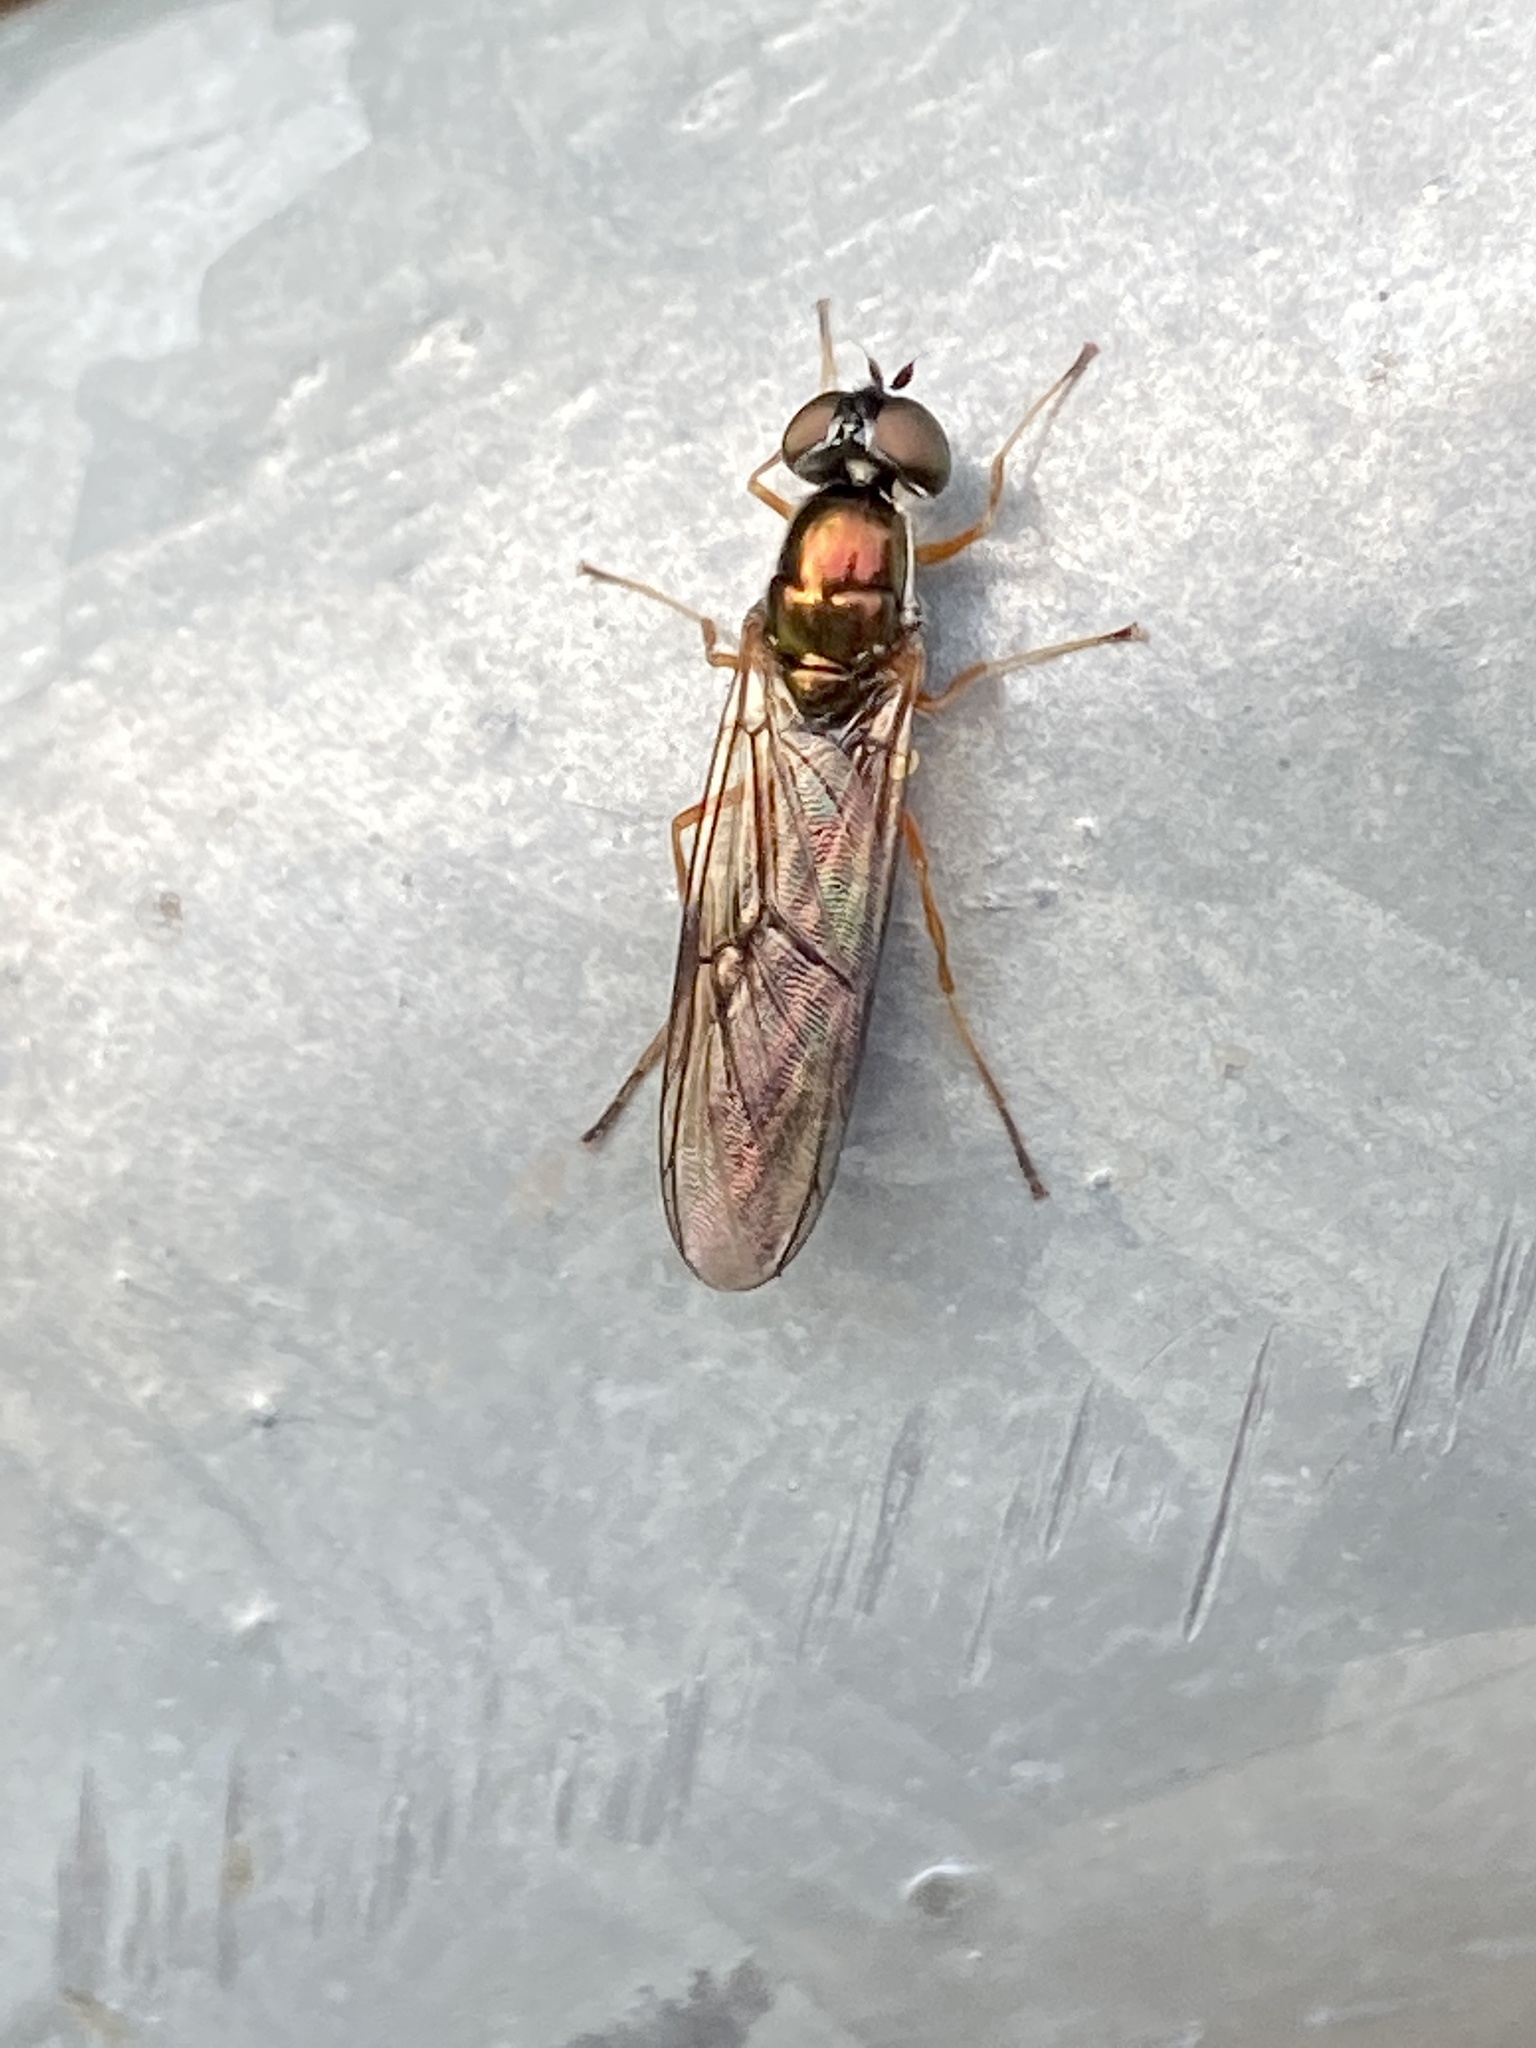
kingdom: Animalia
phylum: Arthropoda
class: Insecta
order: Diptera
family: Stratiomyidae
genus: Sargus
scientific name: Sargus bipunctatus
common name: Twin-spot centurion
